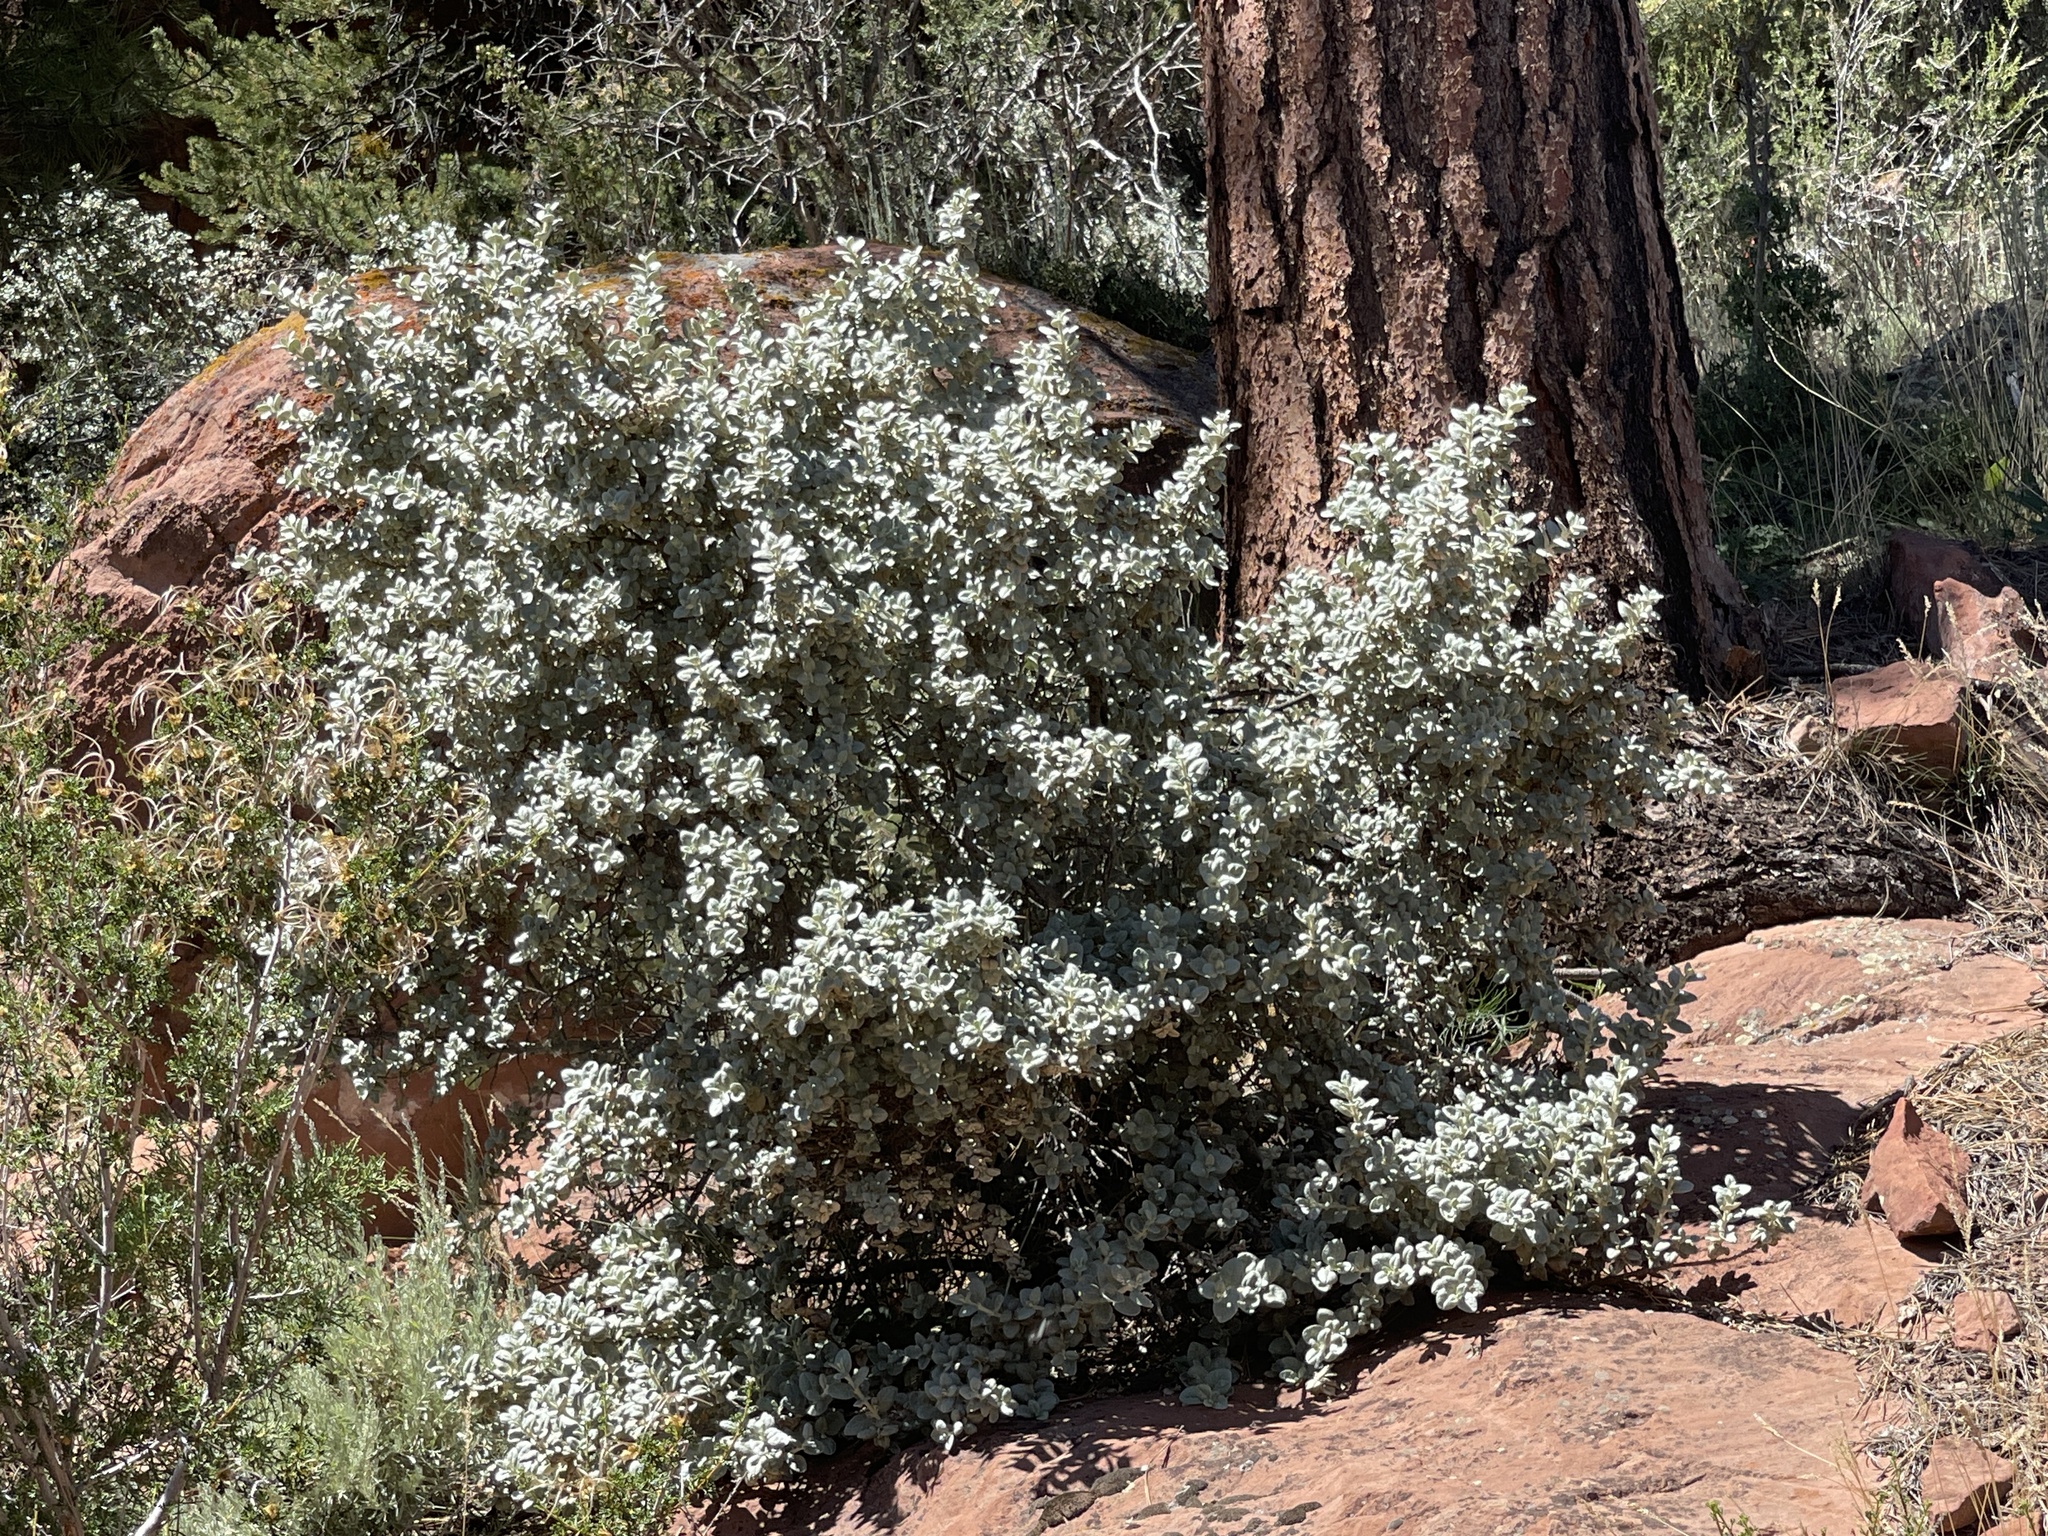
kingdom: Plantae
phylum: Tracheophyta
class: Magnoliopsida
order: Rosales
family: Elaeagnaceae
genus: Shepherdia
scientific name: Shepherdia rotundifolia
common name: Silverscale
